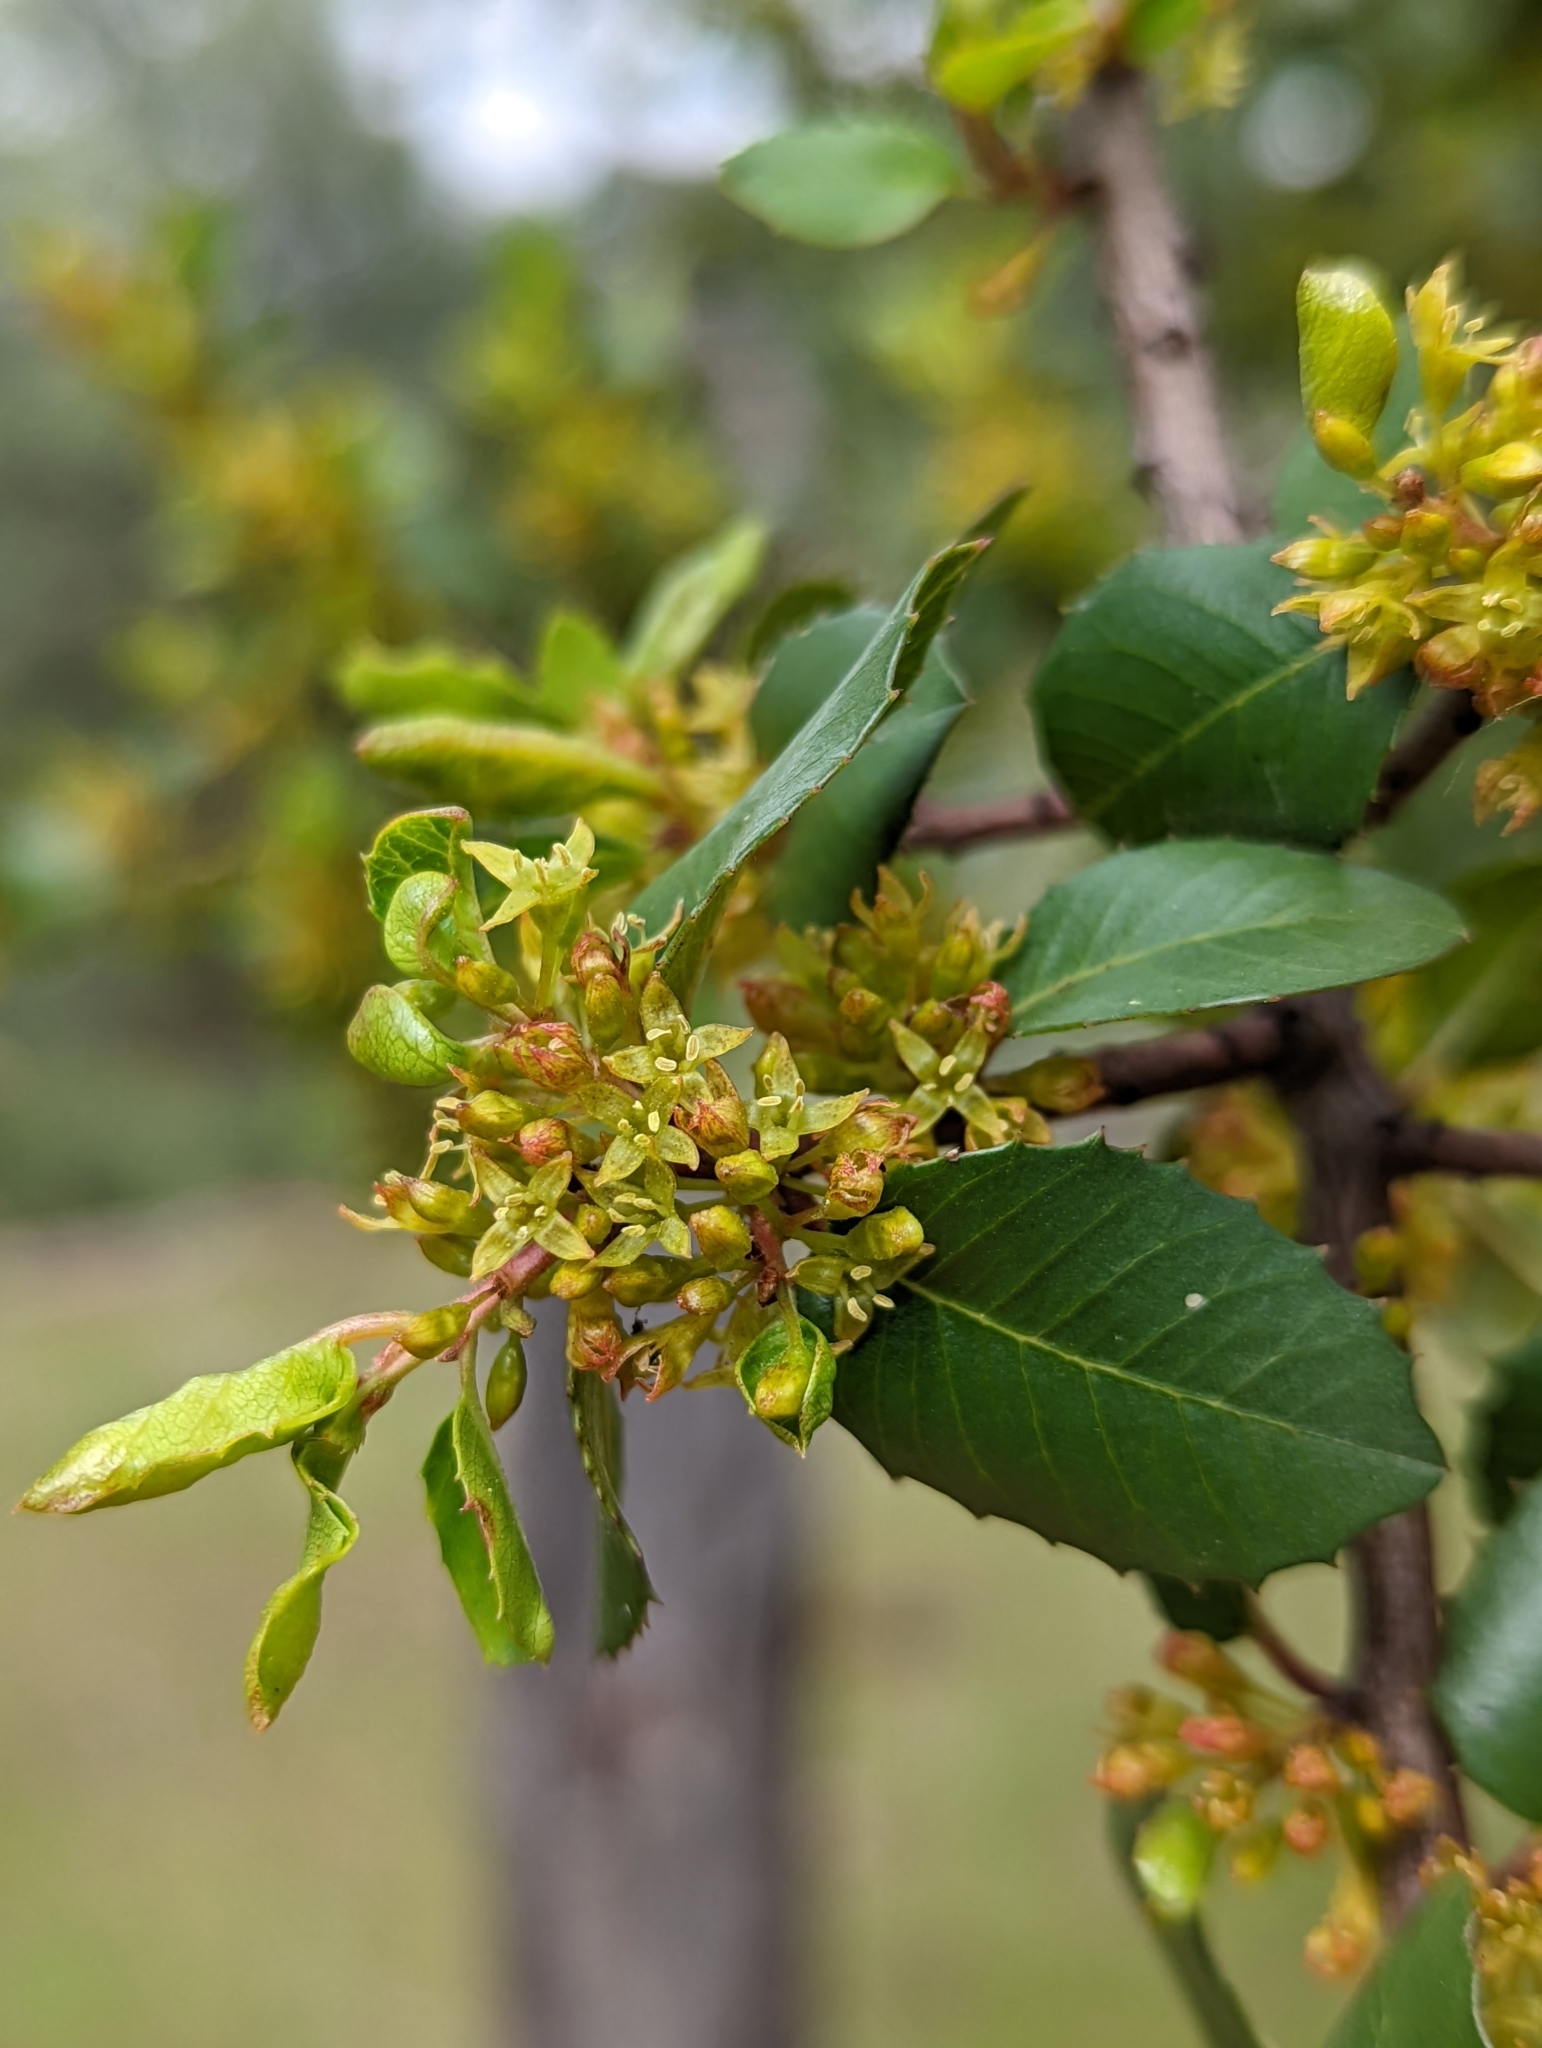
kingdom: Plantae
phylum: Tracheophyta
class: Magnoliopsida
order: Rosales
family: Rhamnaceae
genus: Endotropis
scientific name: Endotropis crocea
